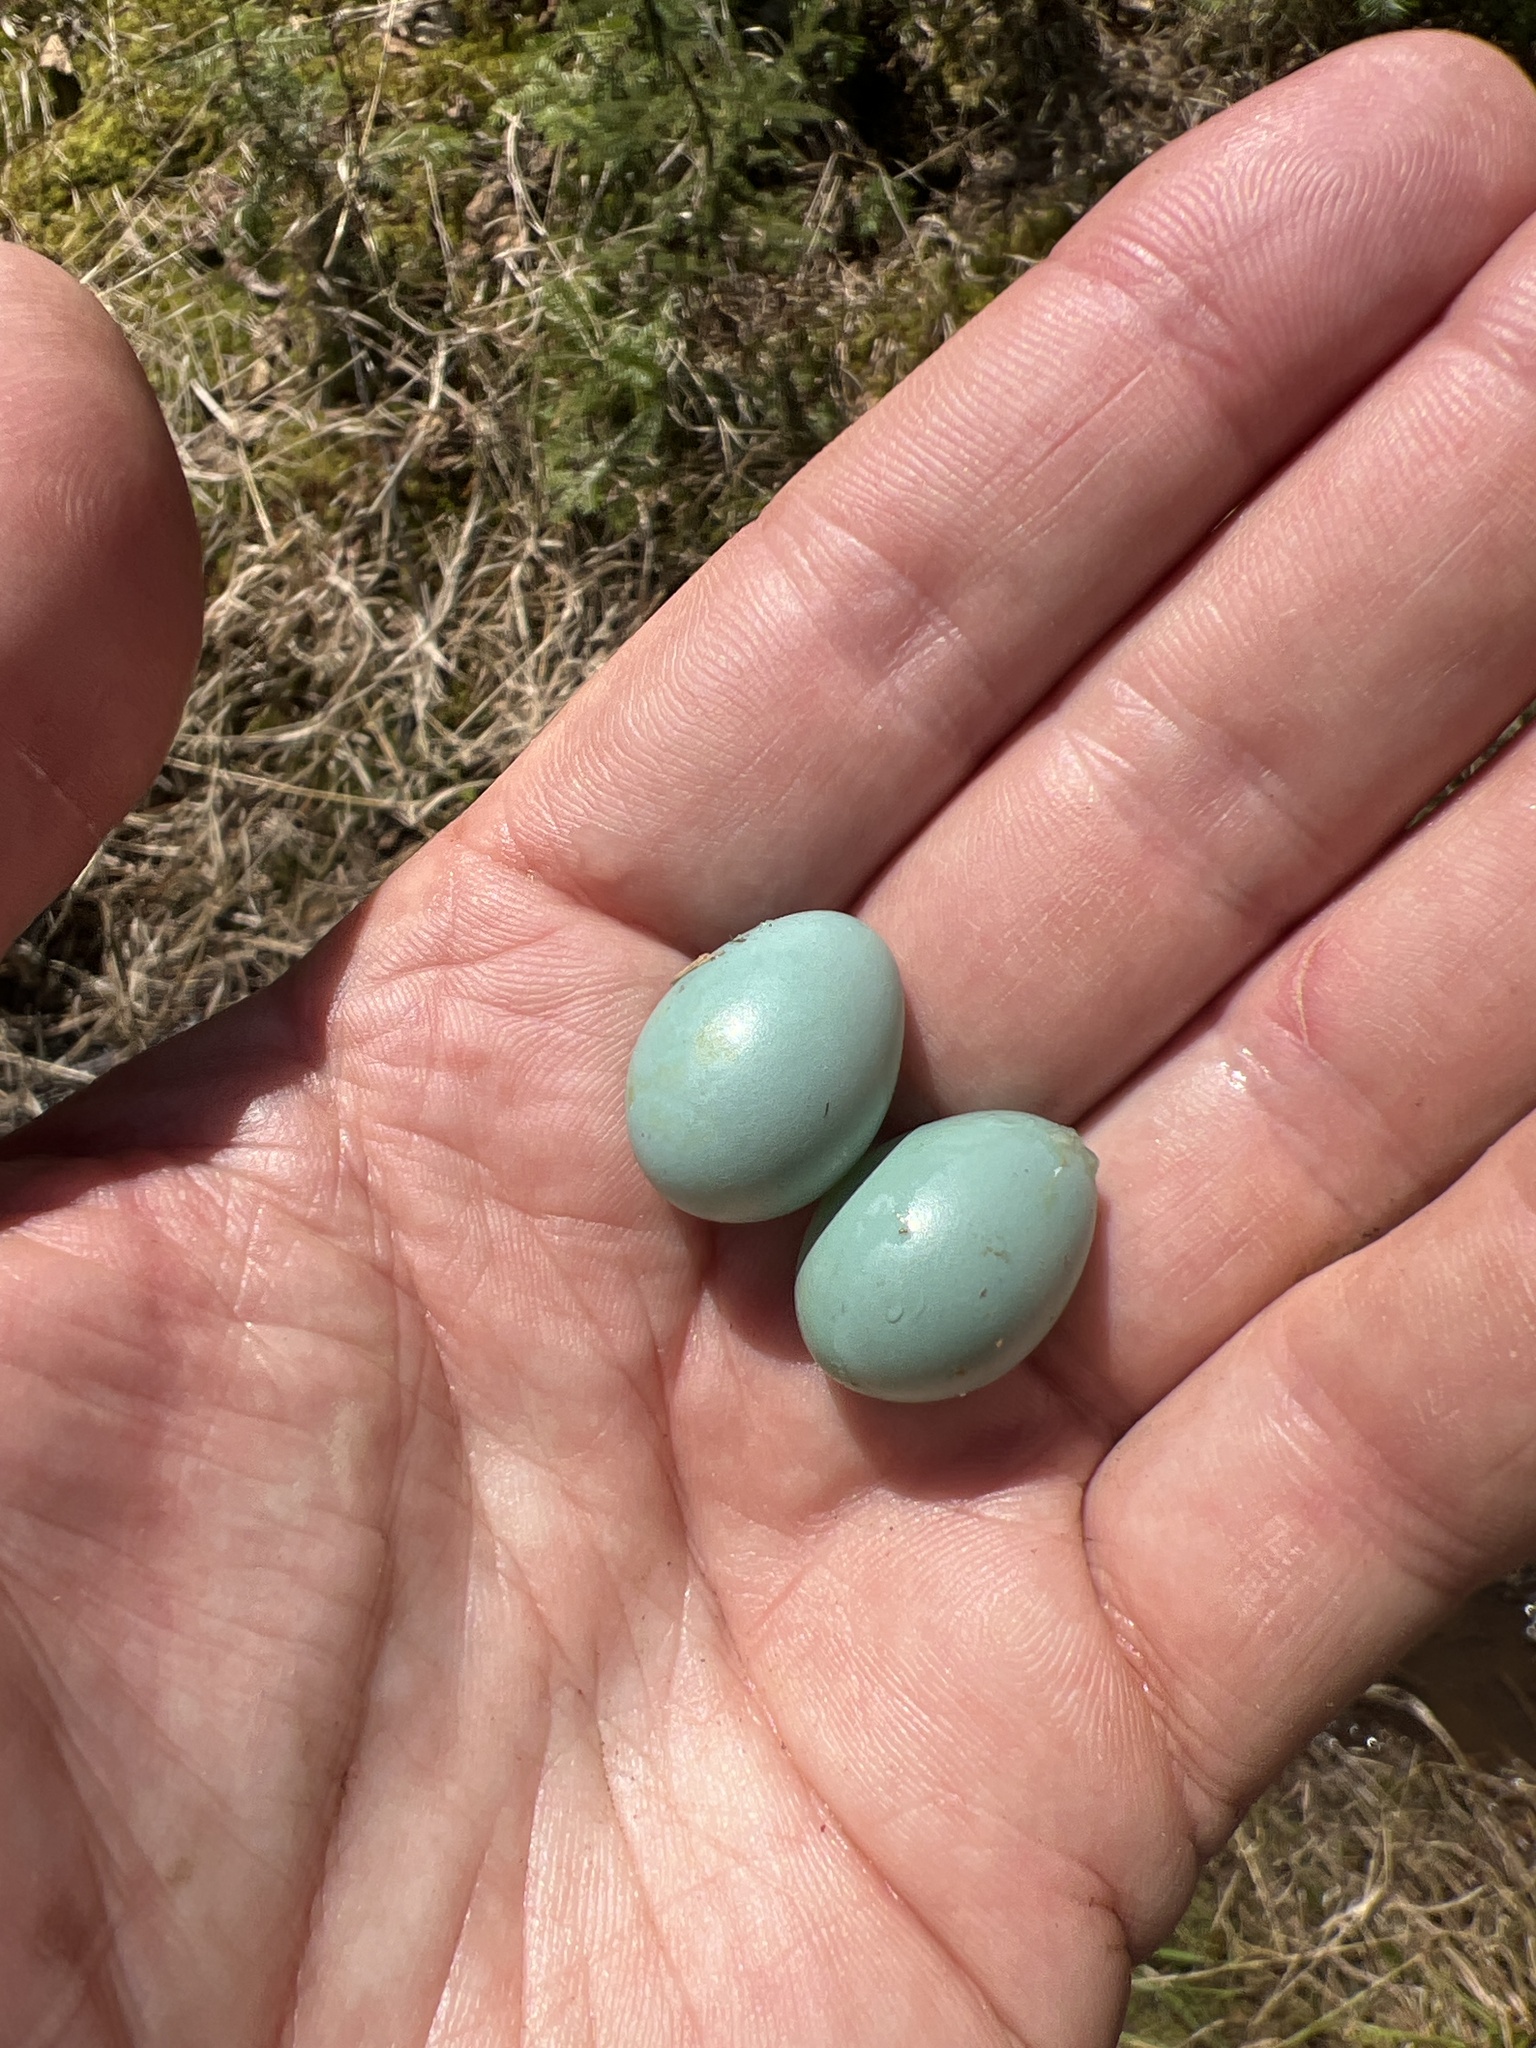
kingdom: Animalia
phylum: Chordata
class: Aves
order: Passeriformes
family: Passerellidae
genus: Spizella
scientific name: Spizella passerina
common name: Chipping sparrow
